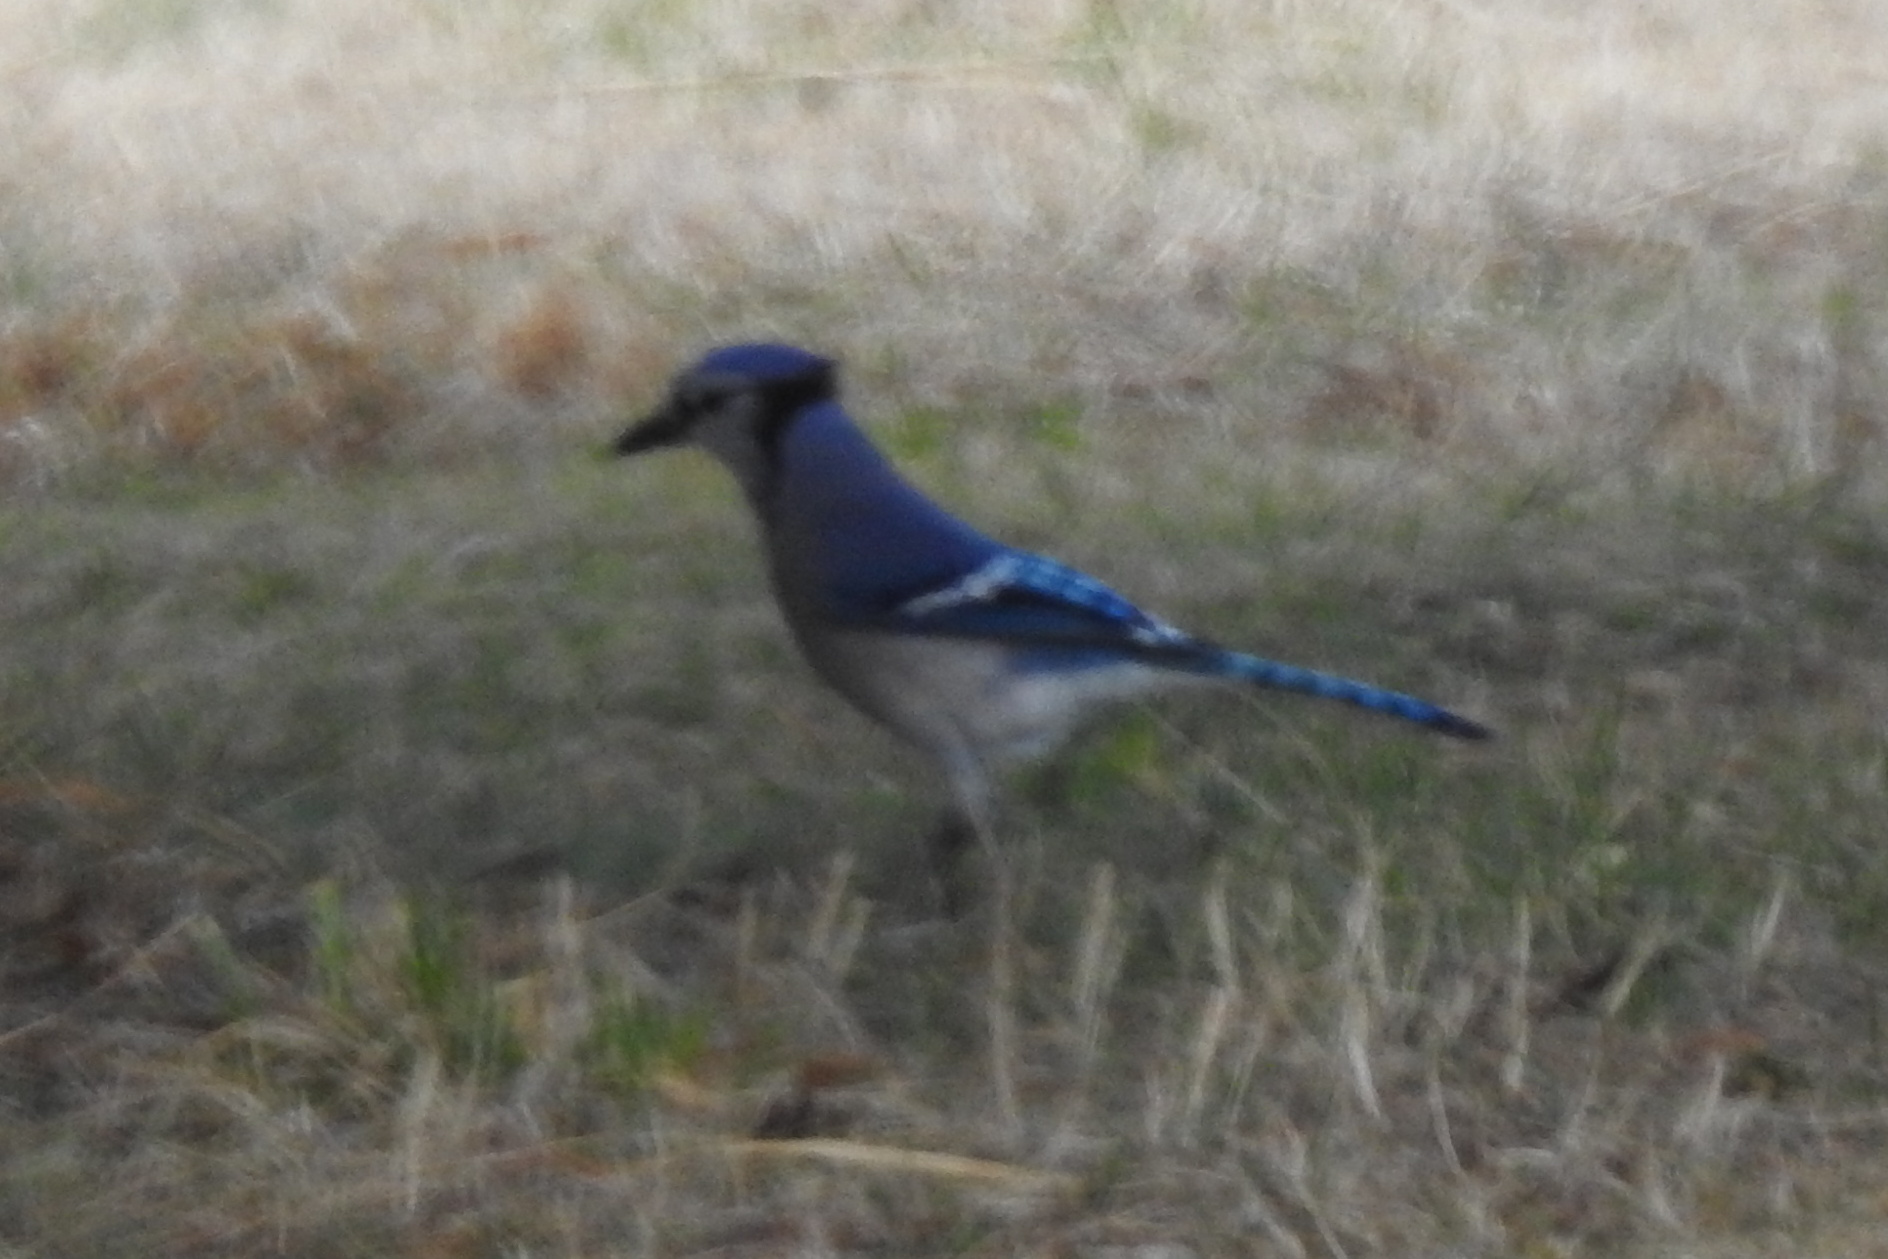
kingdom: Animalia
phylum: Chordata
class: Aves
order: Passeriformes
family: Corvidae
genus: Cyanocitta
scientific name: Cyanocitta cristata
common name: Blue jay
